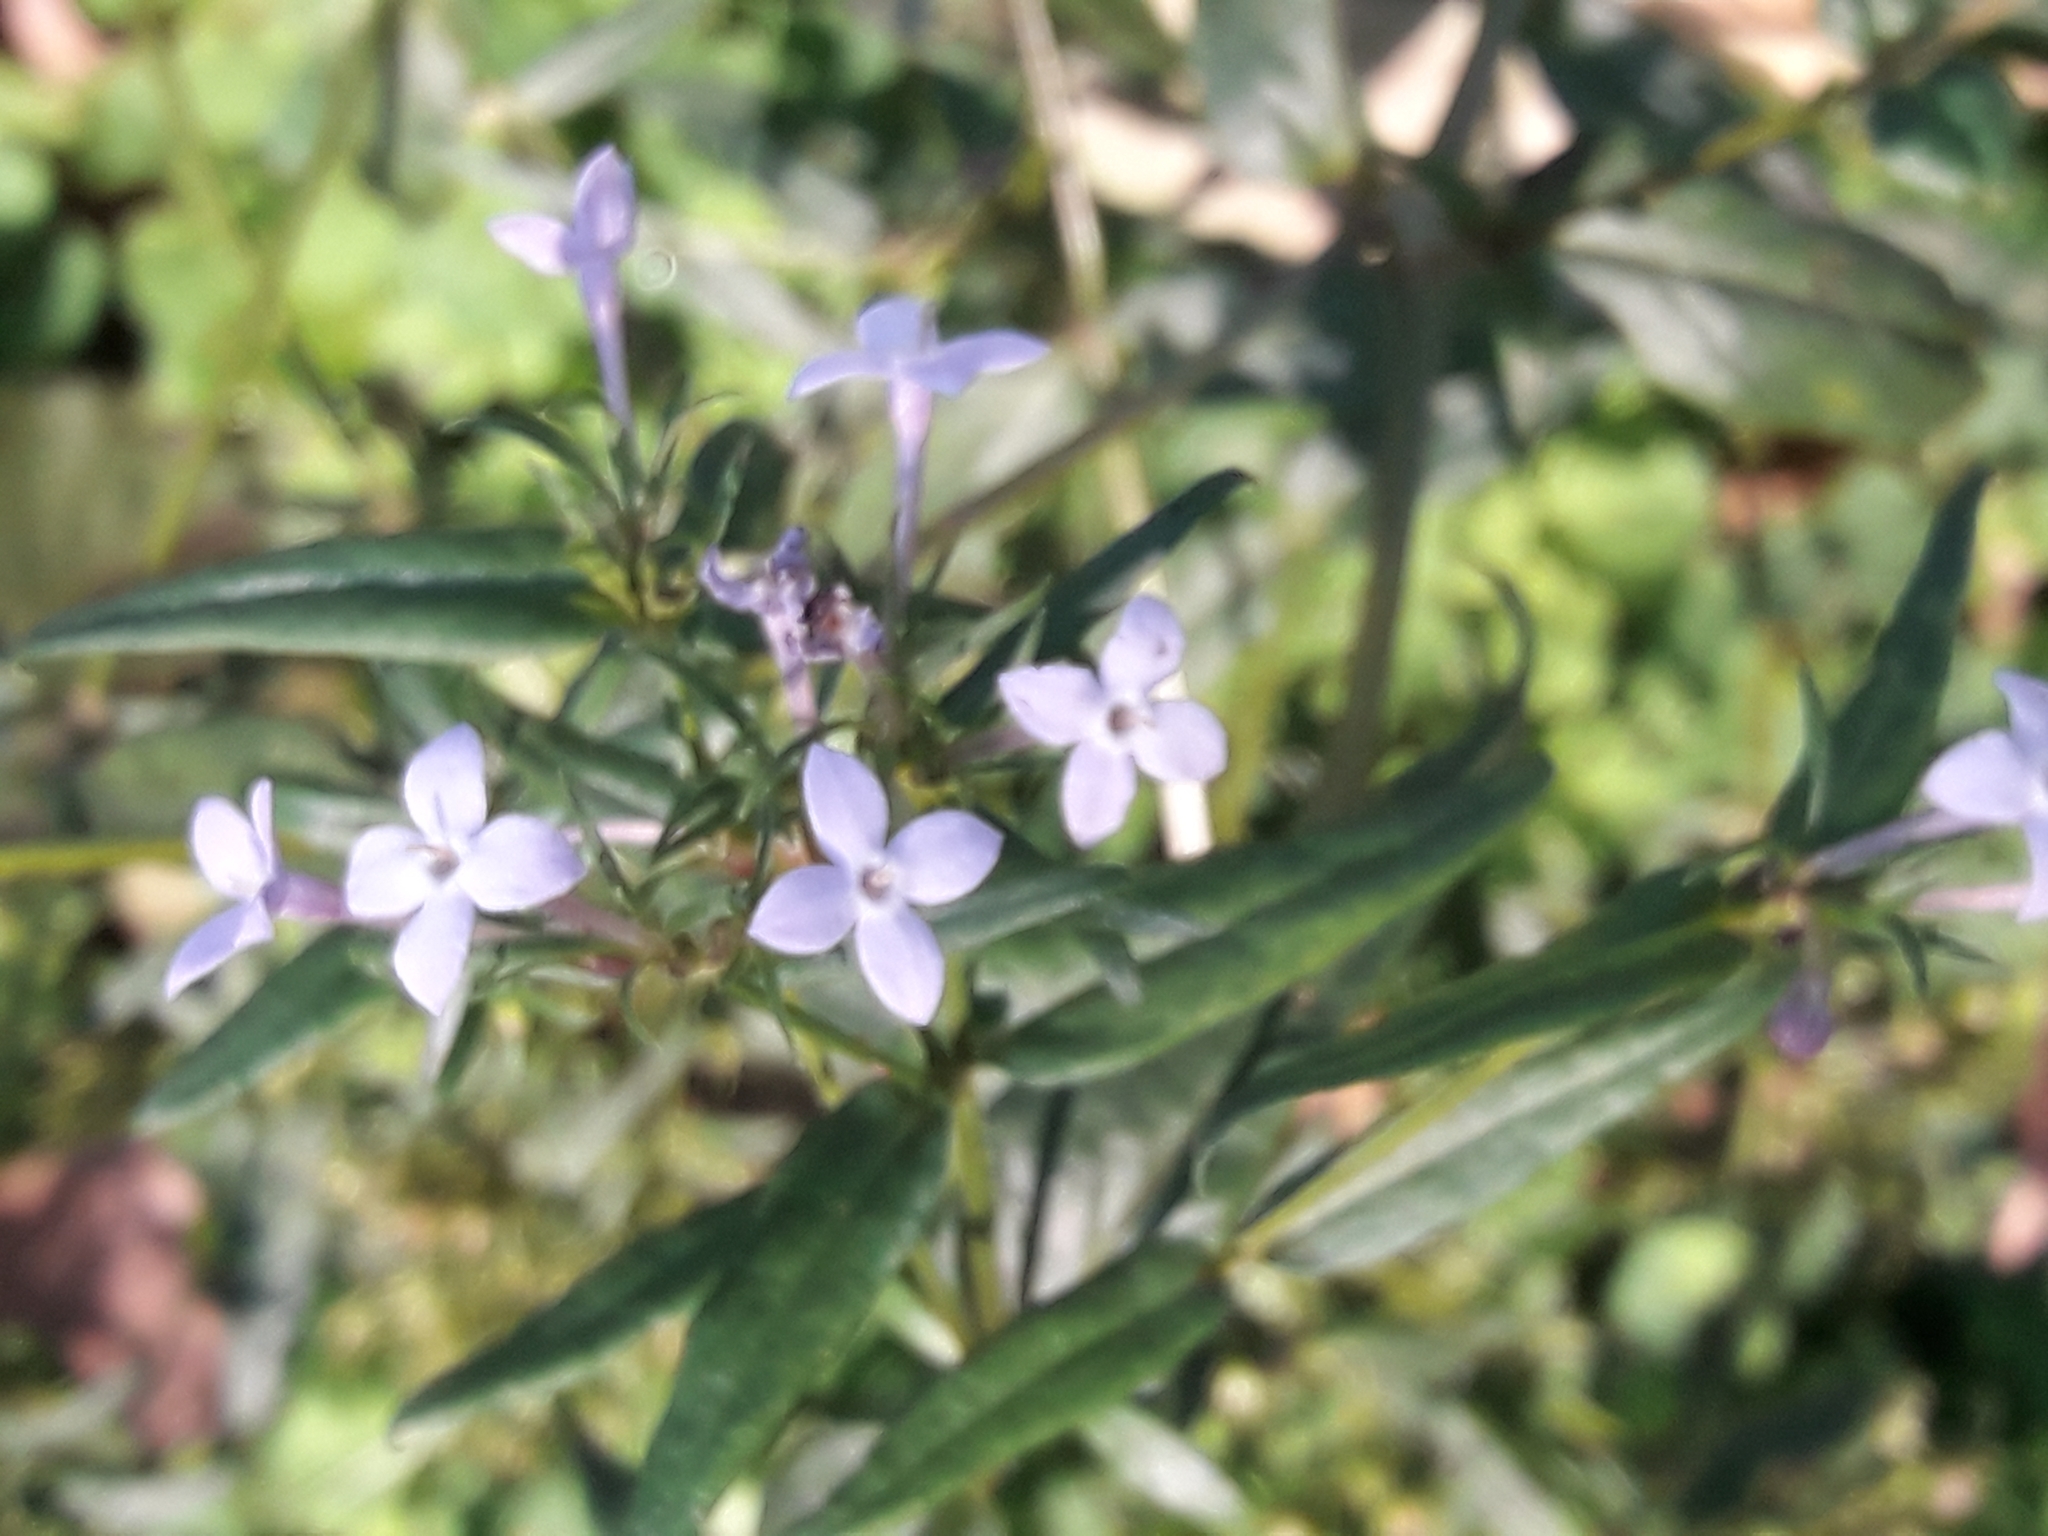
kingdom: Plantae
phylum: Tracheophyta
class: Magnoliopsida
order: Gentianales
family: Rubiaceae
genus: Conostomium
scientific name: Conostomium natalense
